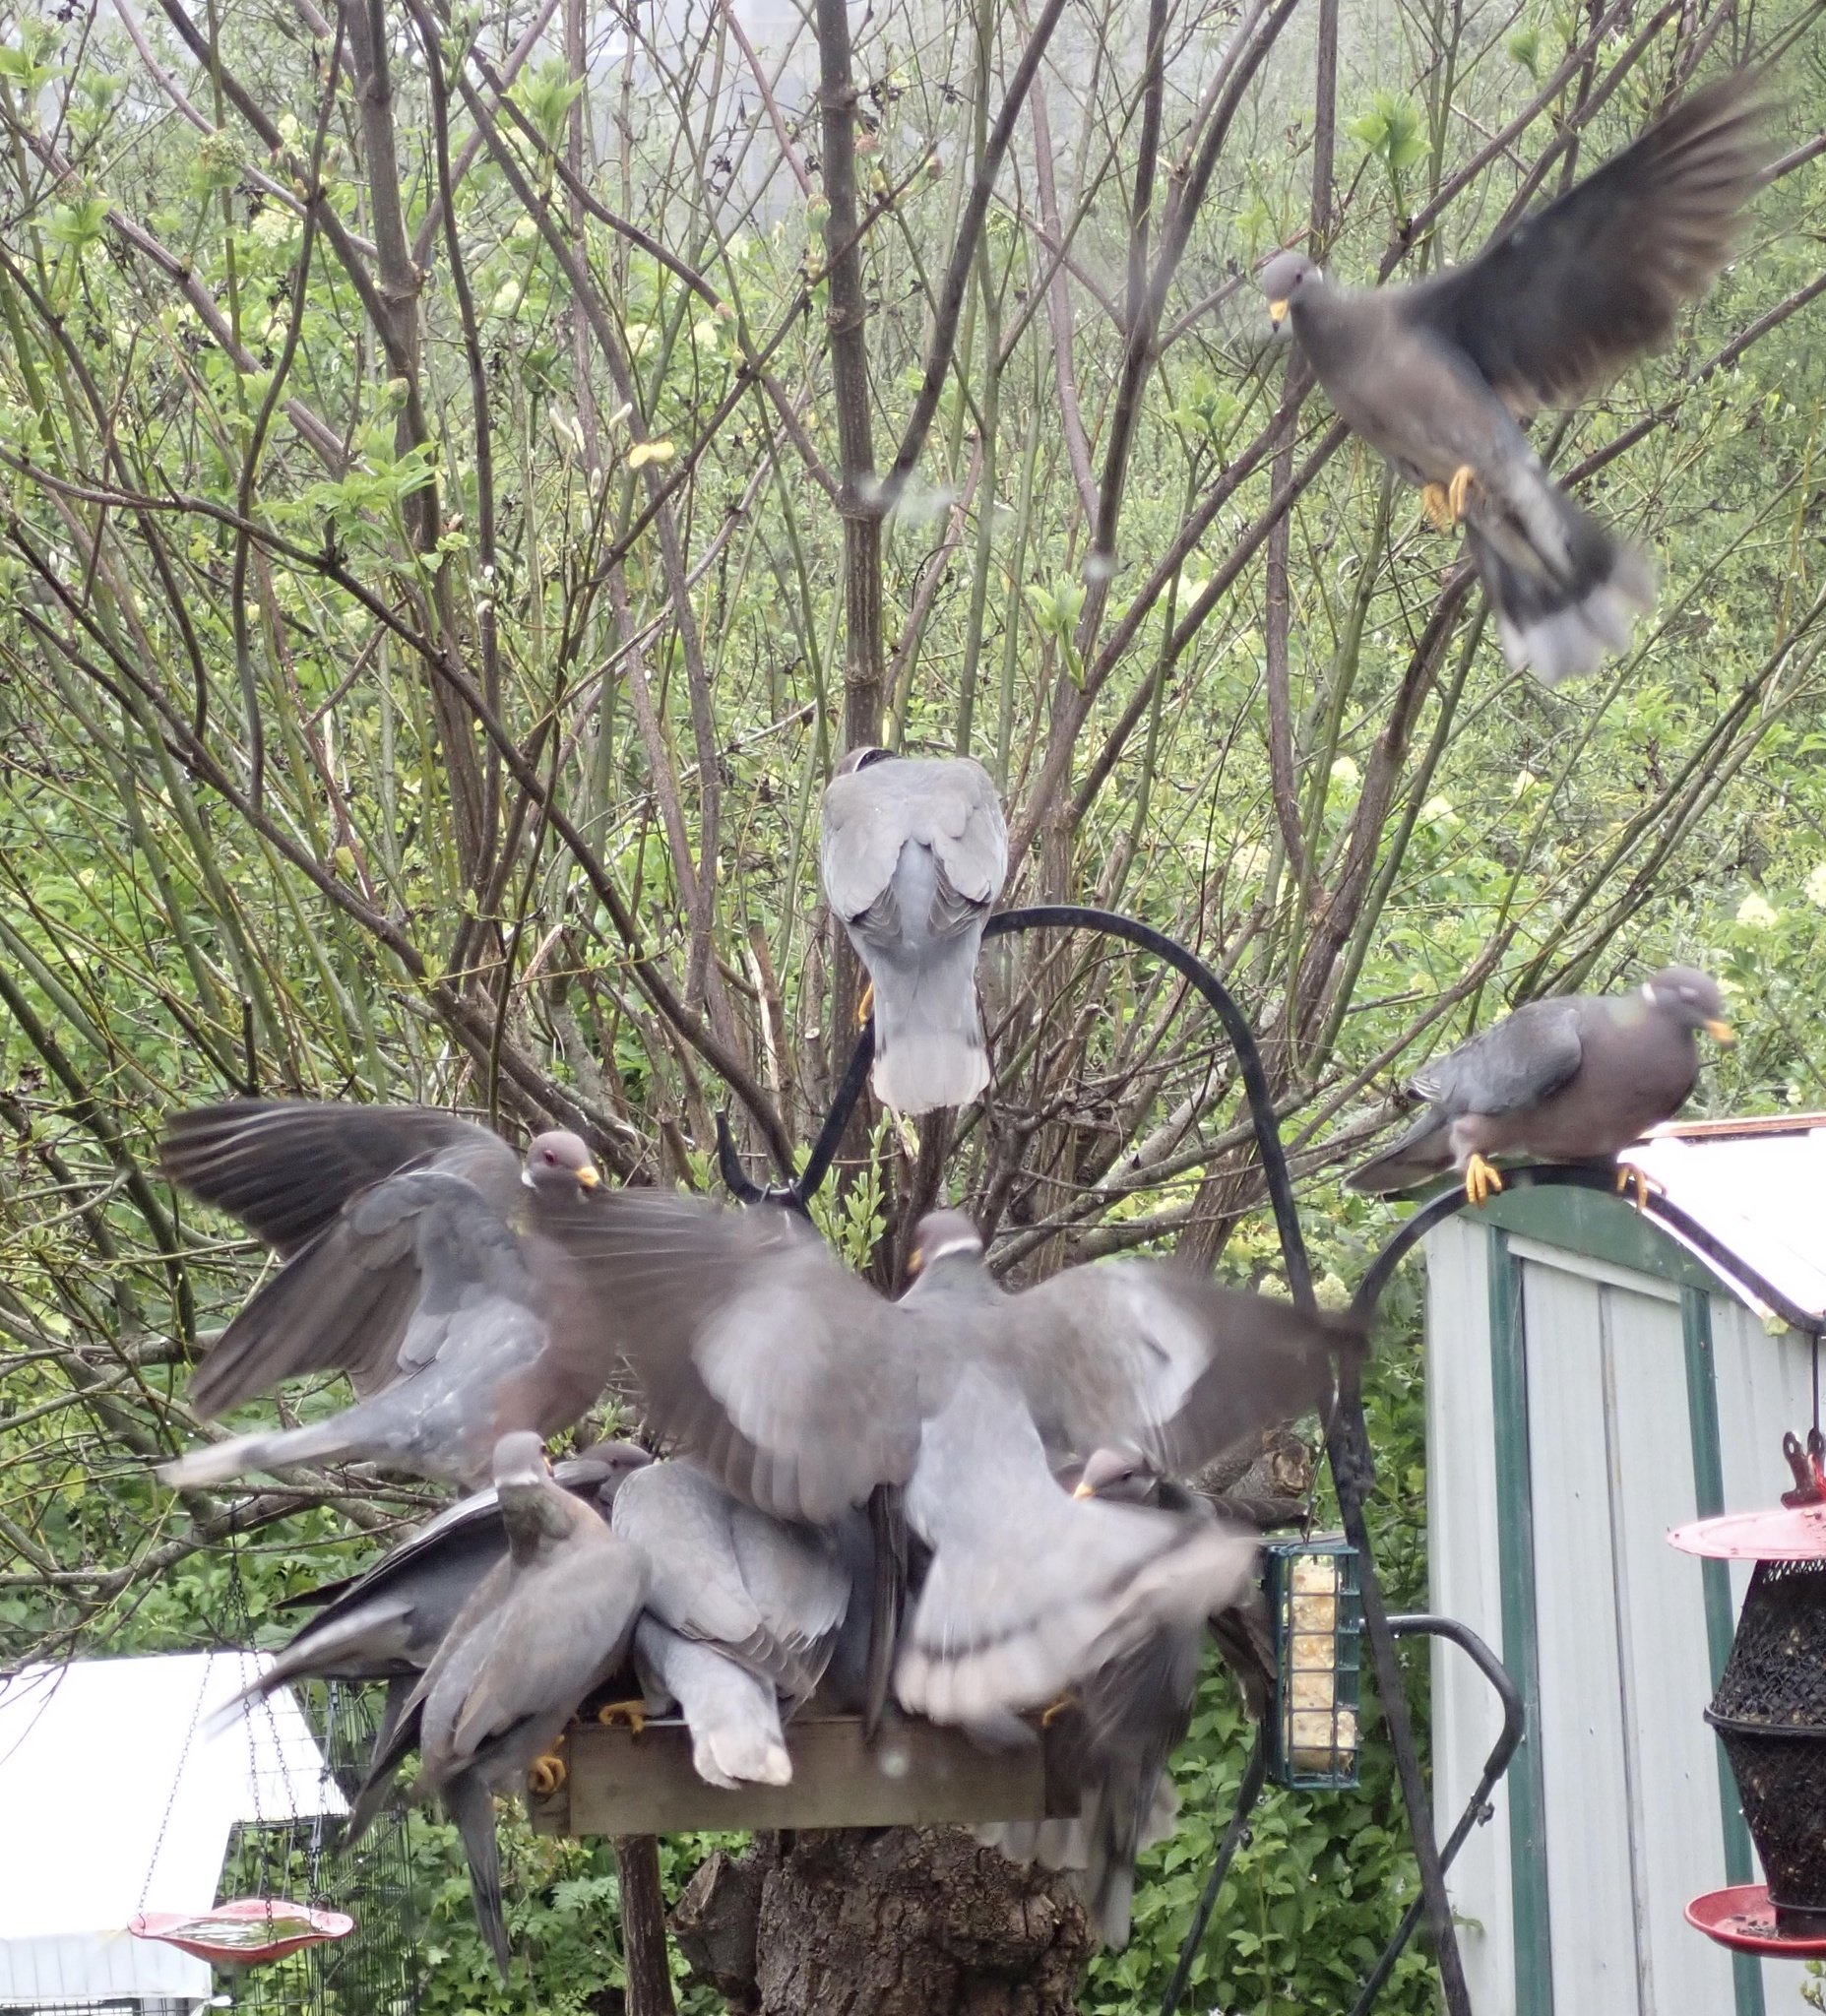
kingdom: Animalia
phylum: Chordata
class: Aves
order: Columbiformes
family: Columbidae
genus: Patagioenas
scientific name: Patagioenas fasciata
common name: Band-tailed pigeon
